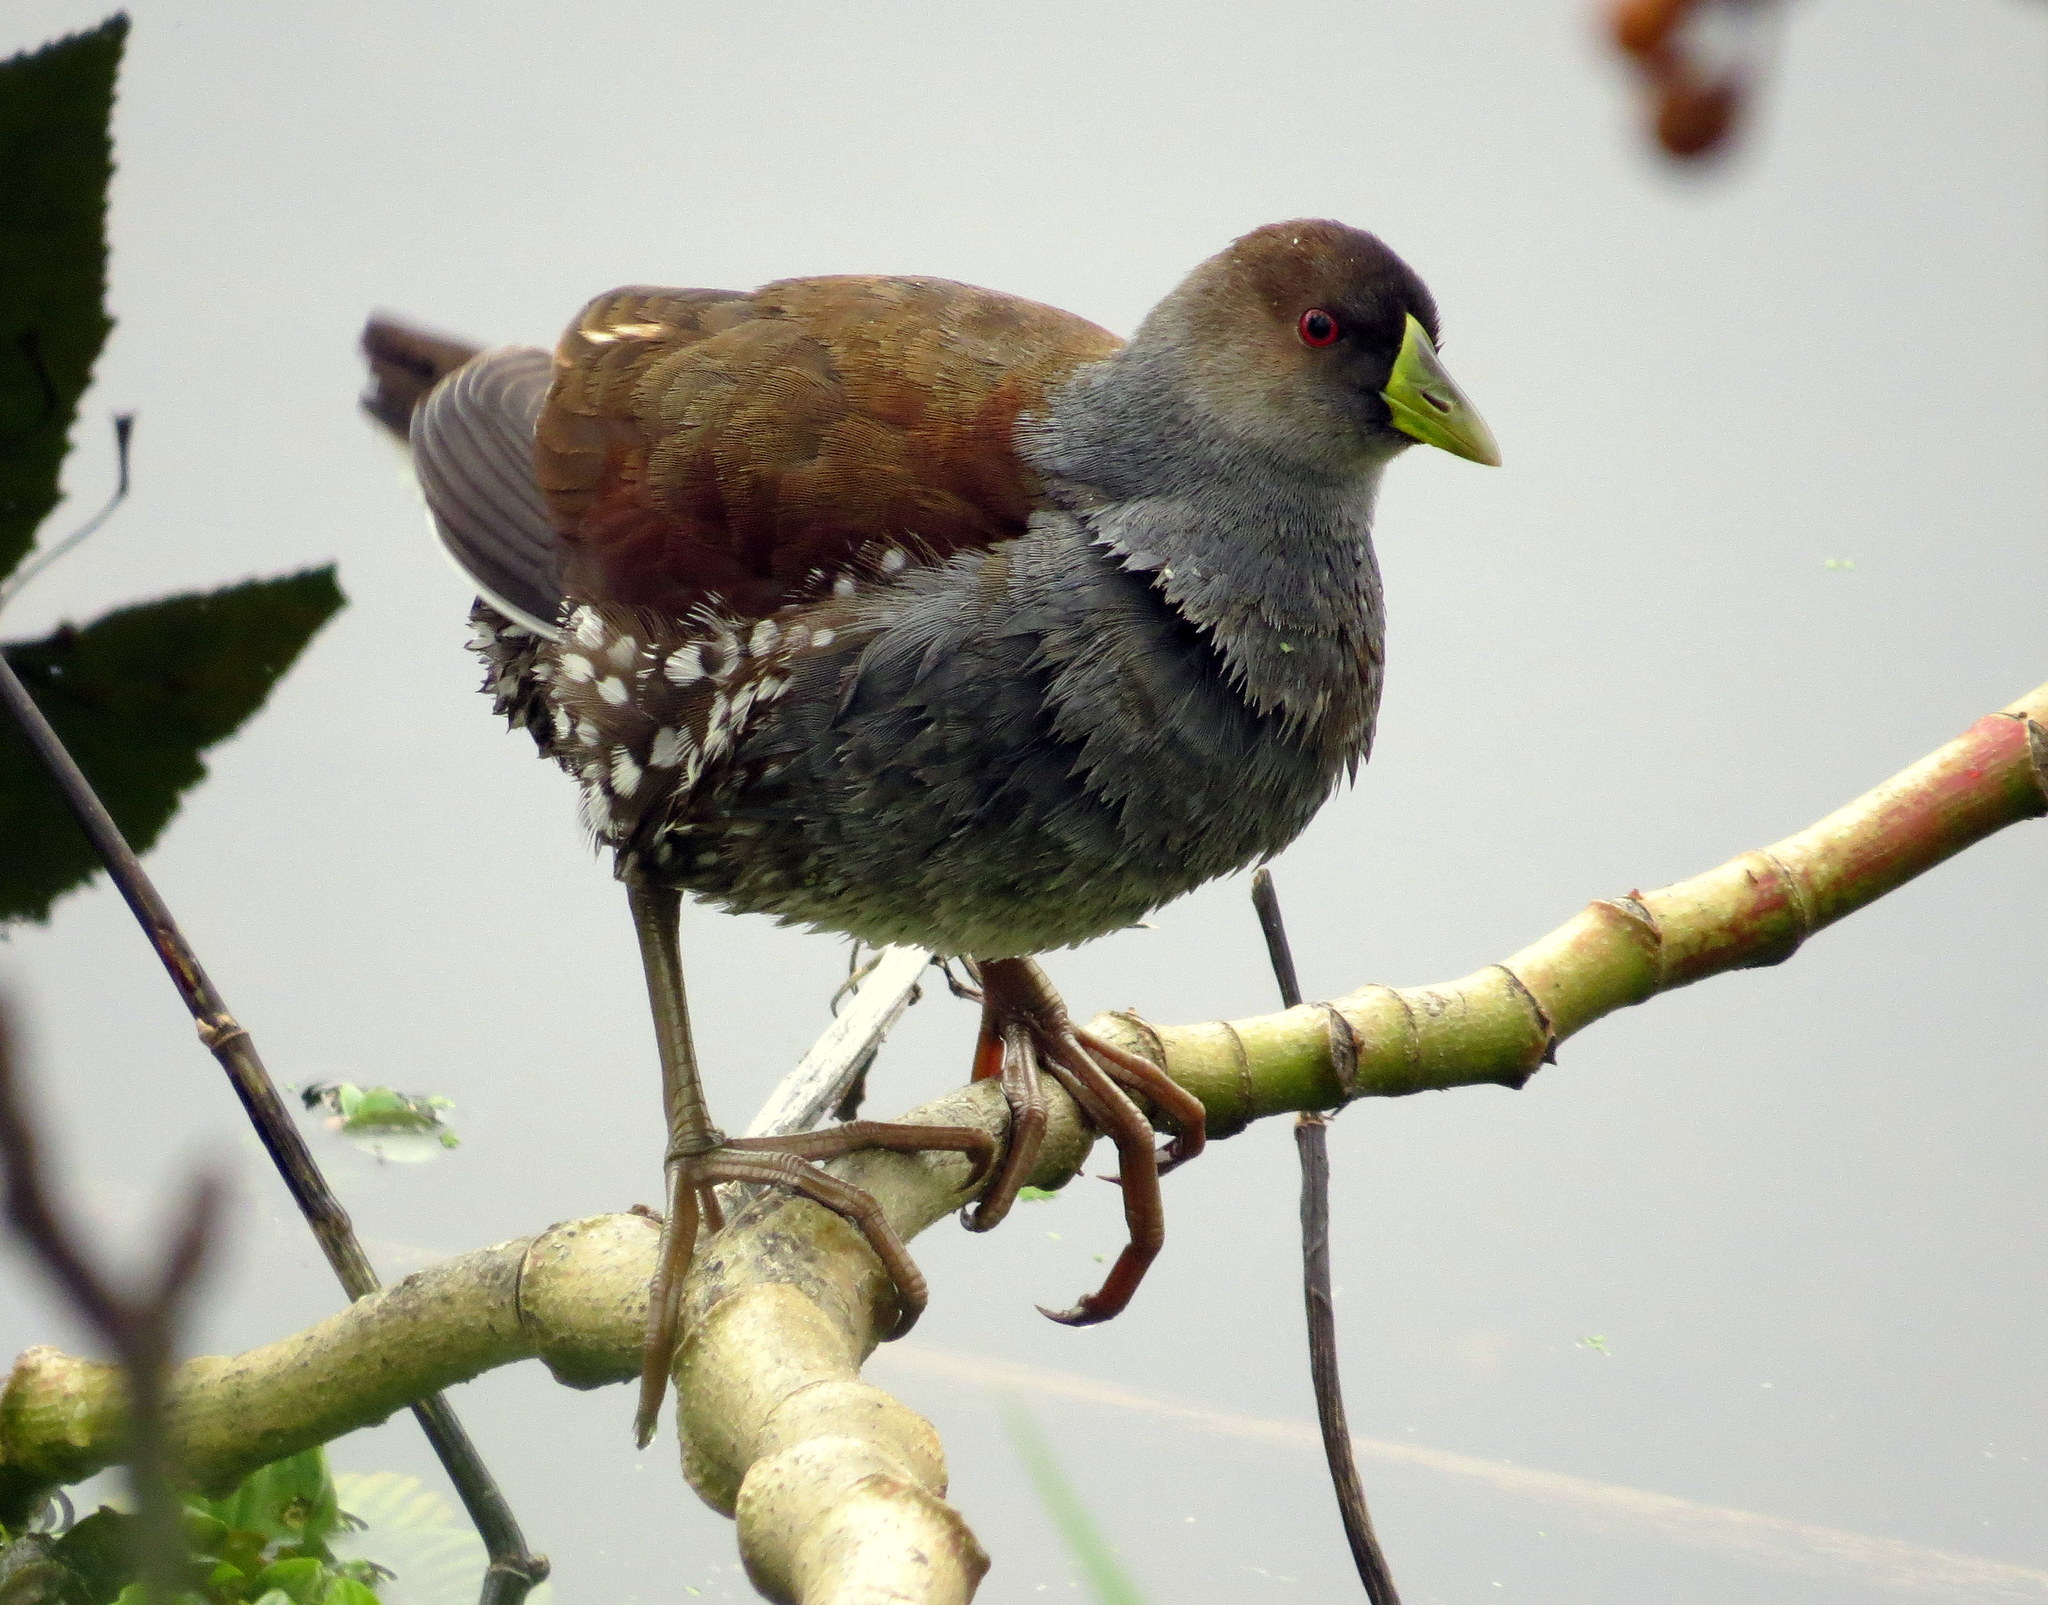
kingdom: Animalia
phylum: Chordata
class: Aves
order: Gruiformes
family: Rallidae
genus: Gallinula
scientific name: Gallinula melanops
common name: Spot-flanked gallinule
